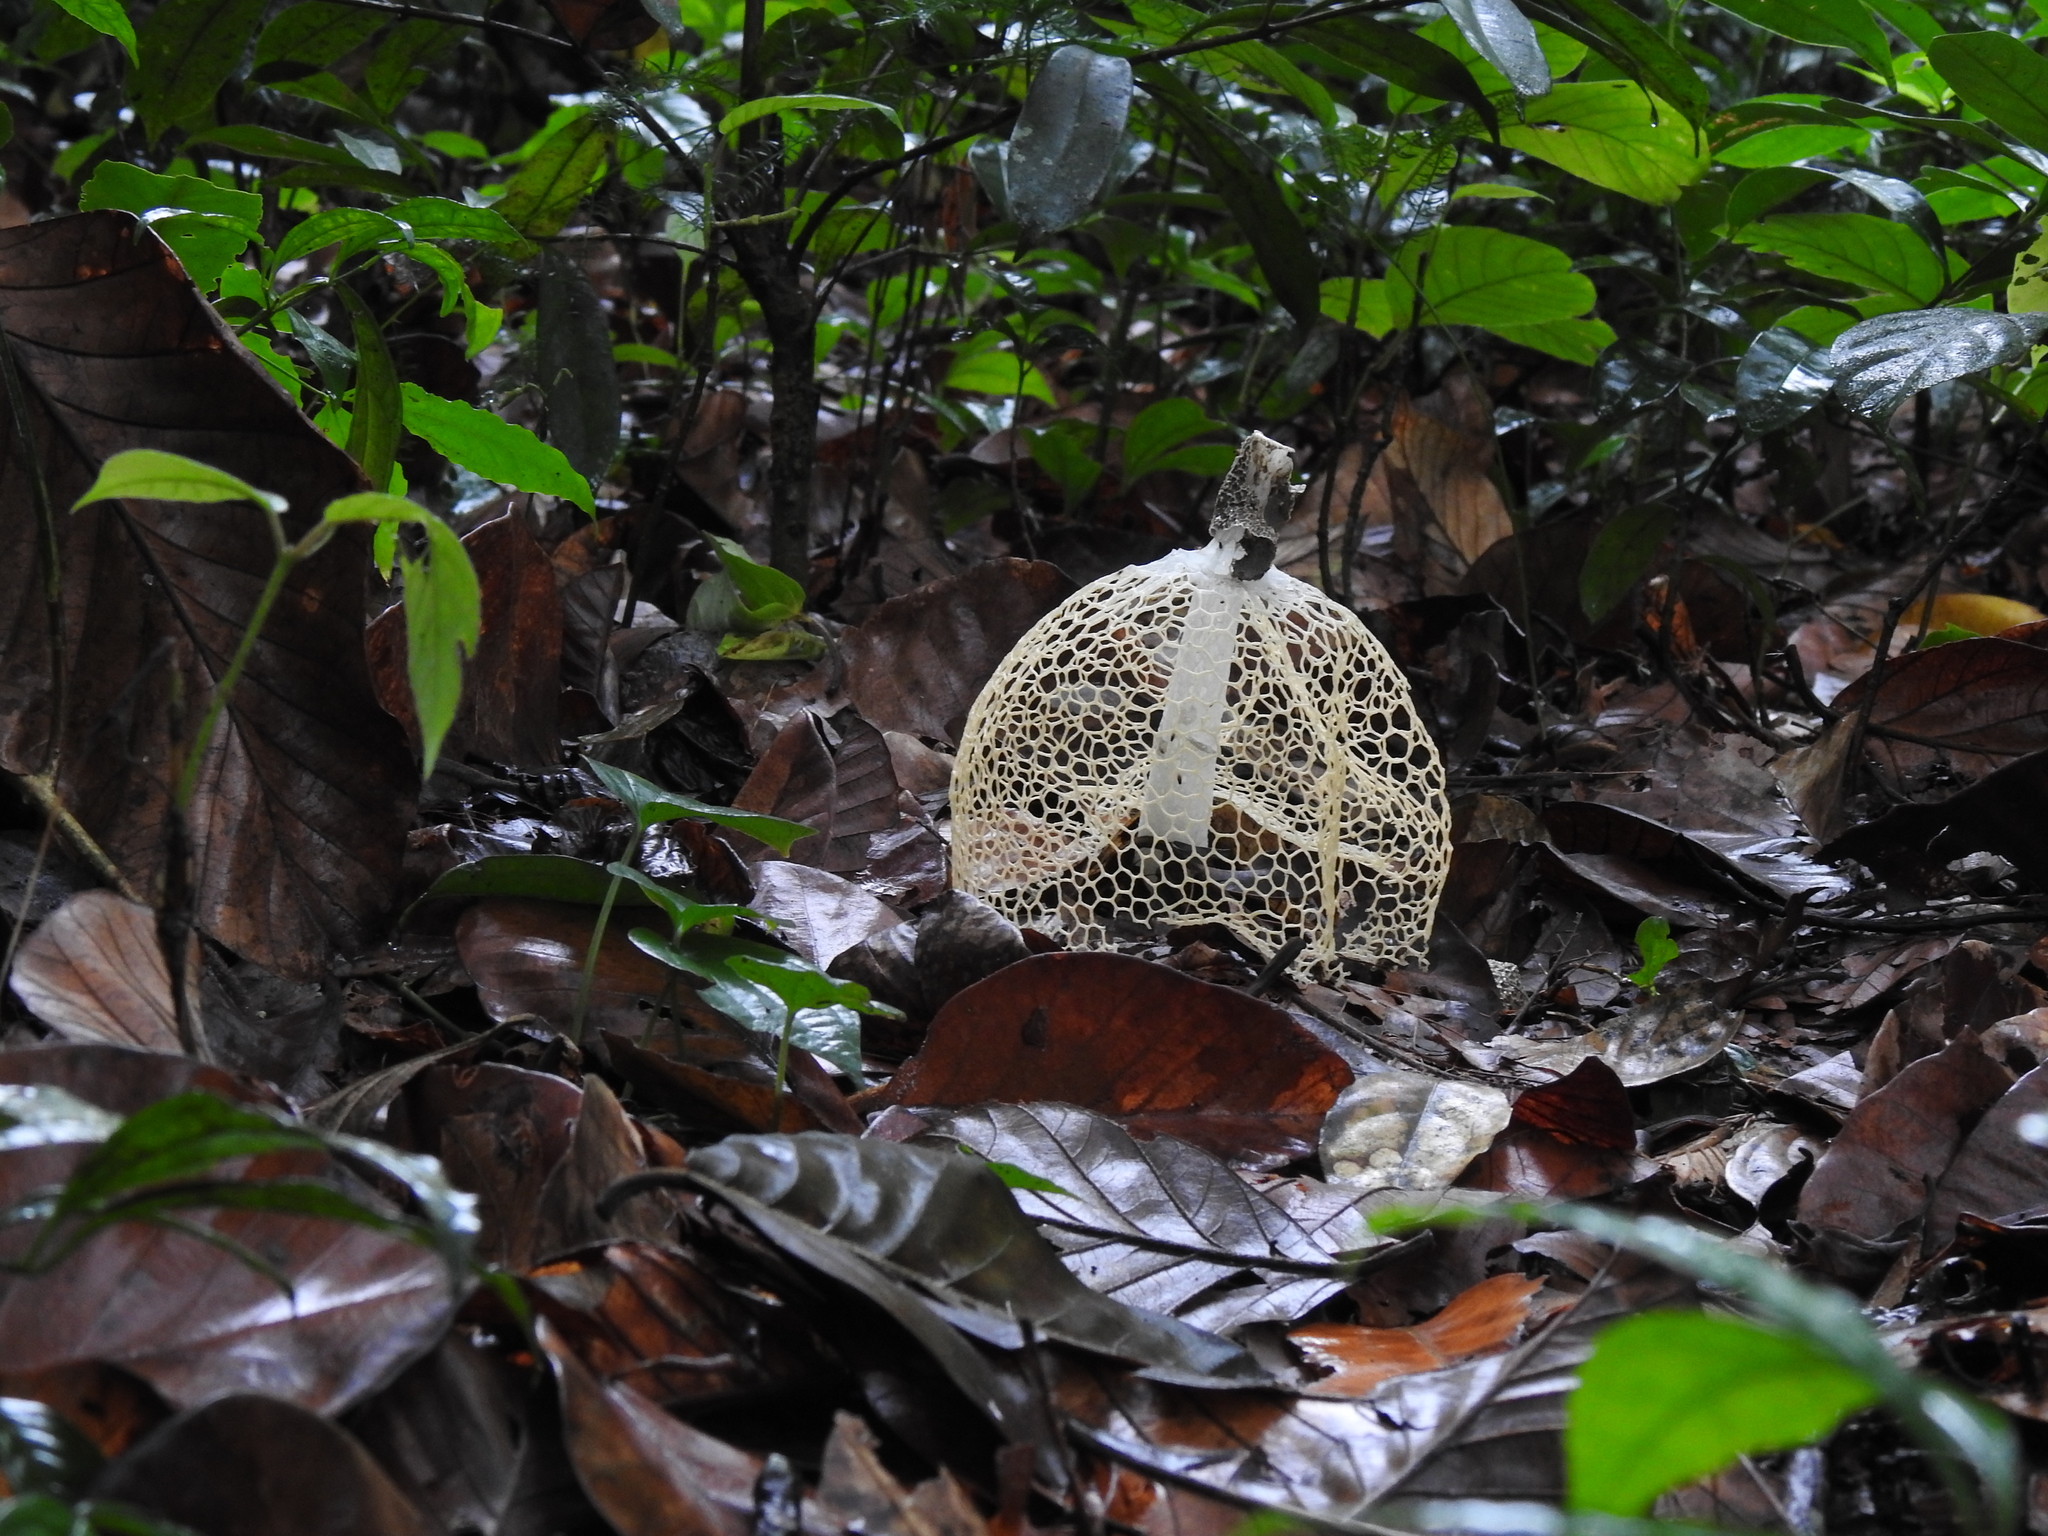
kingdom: Fungi
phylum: Basidiomycota
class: Agaricomycetes
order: Phallales
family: Phallaceae
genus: Phallus
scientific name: Phallus lutescens
